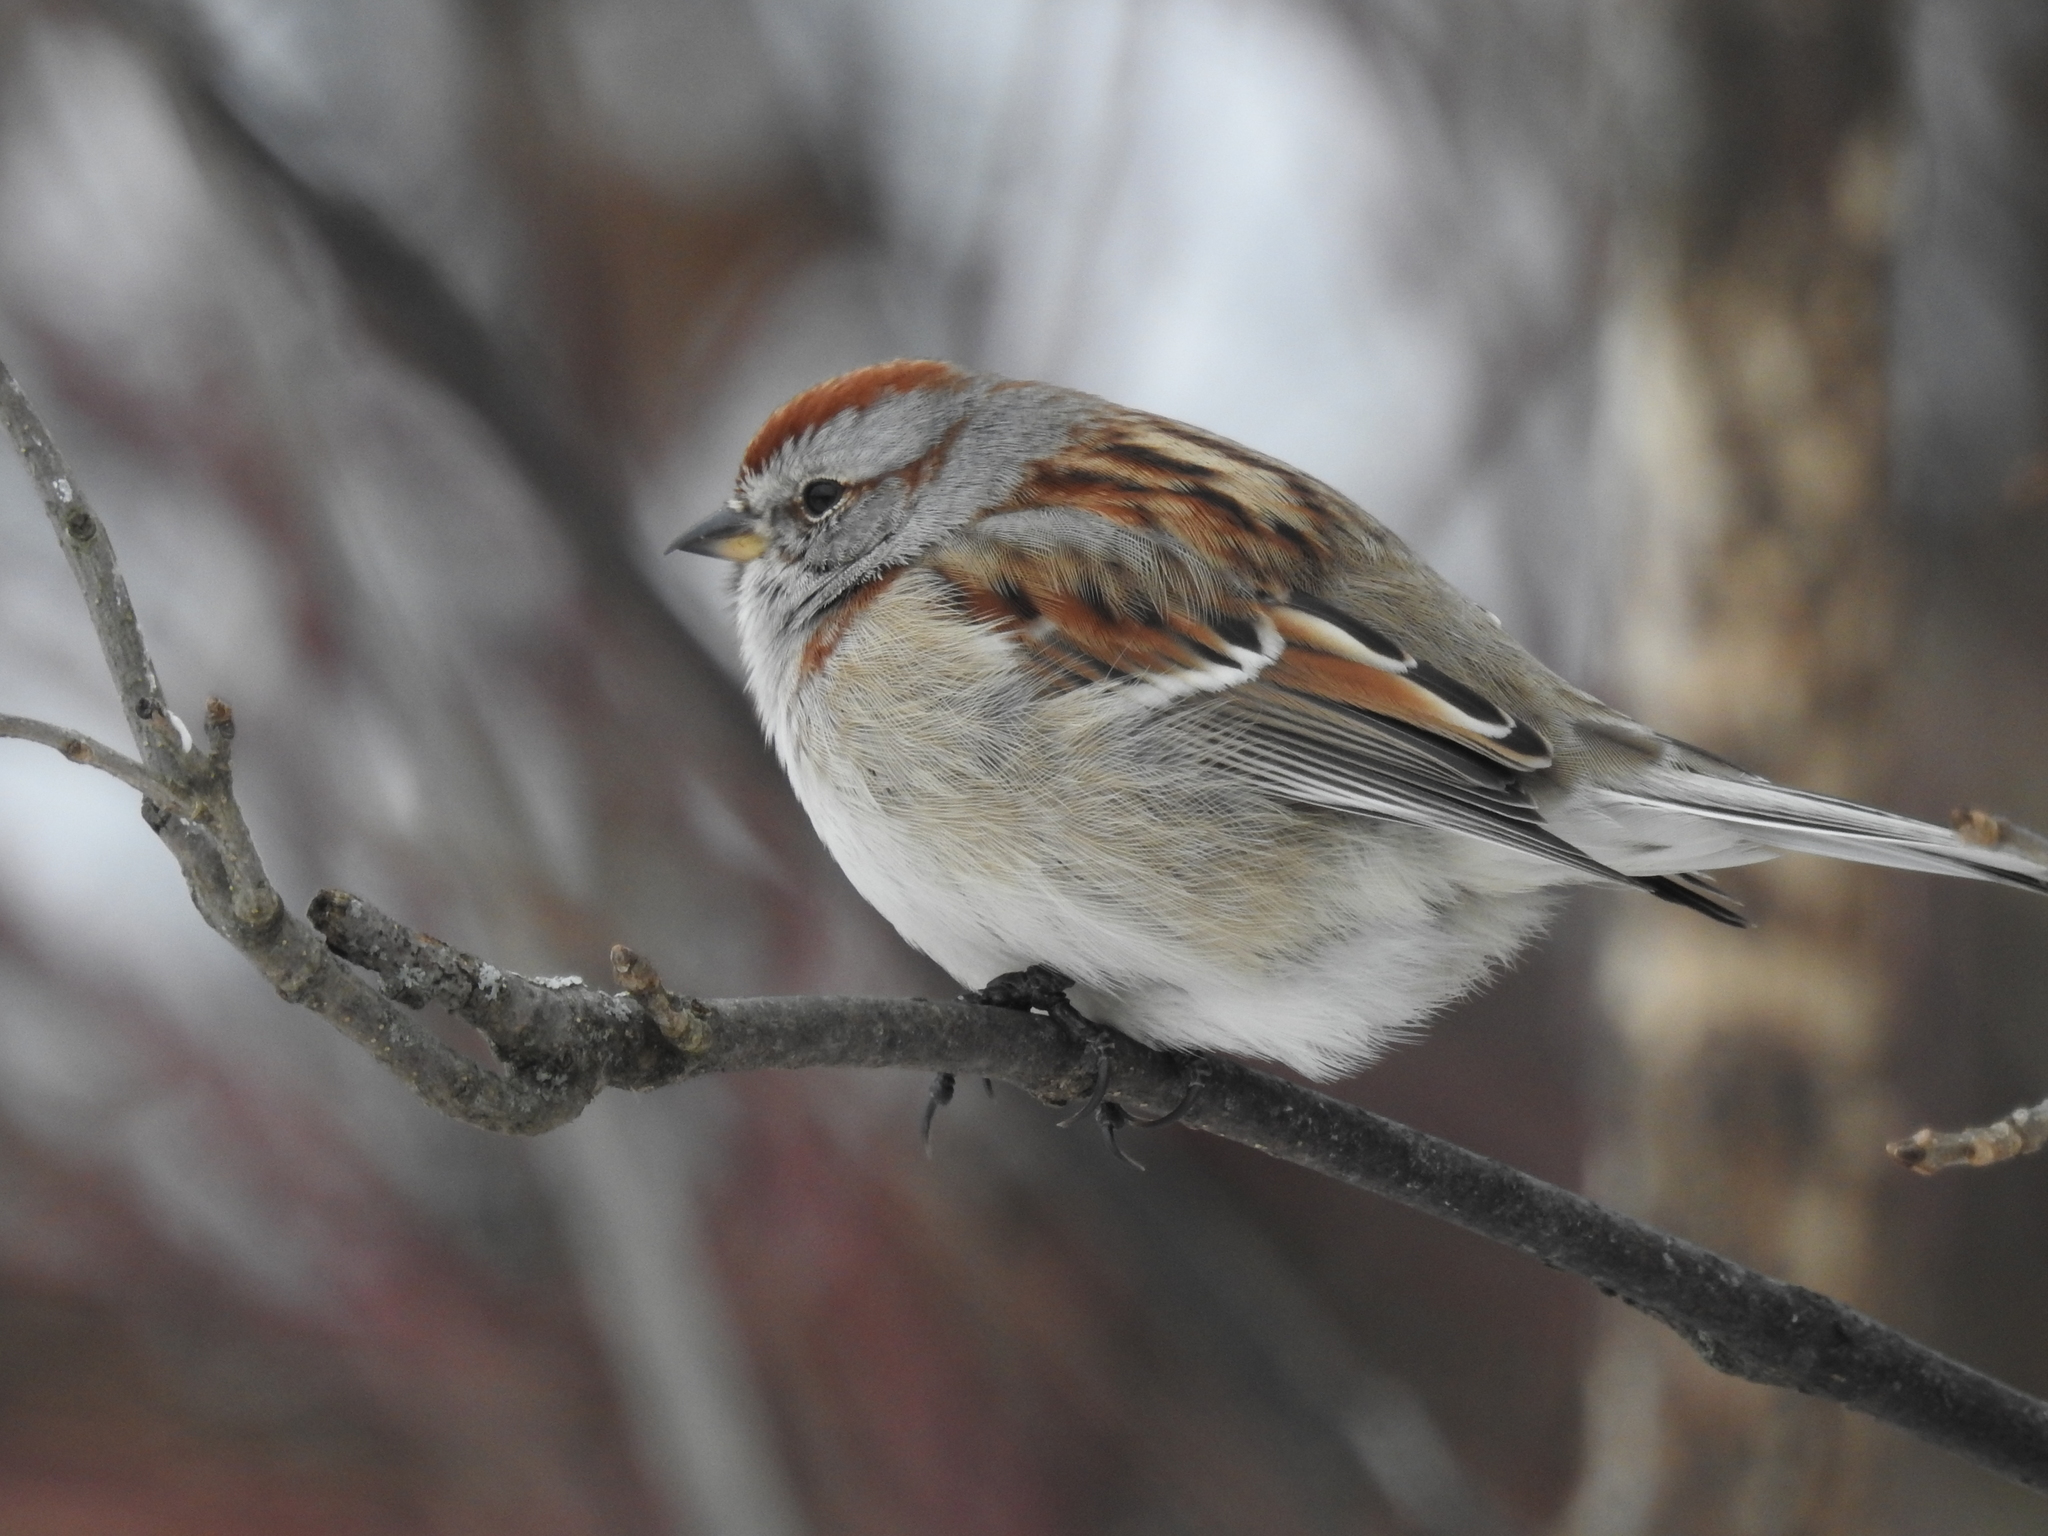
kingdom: Animalia
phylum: Chordata
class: Aves
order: Passeriformes
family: Passerellidae
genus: Spizelloides
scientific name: Spizelloides arborea
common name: American tree sparrow
